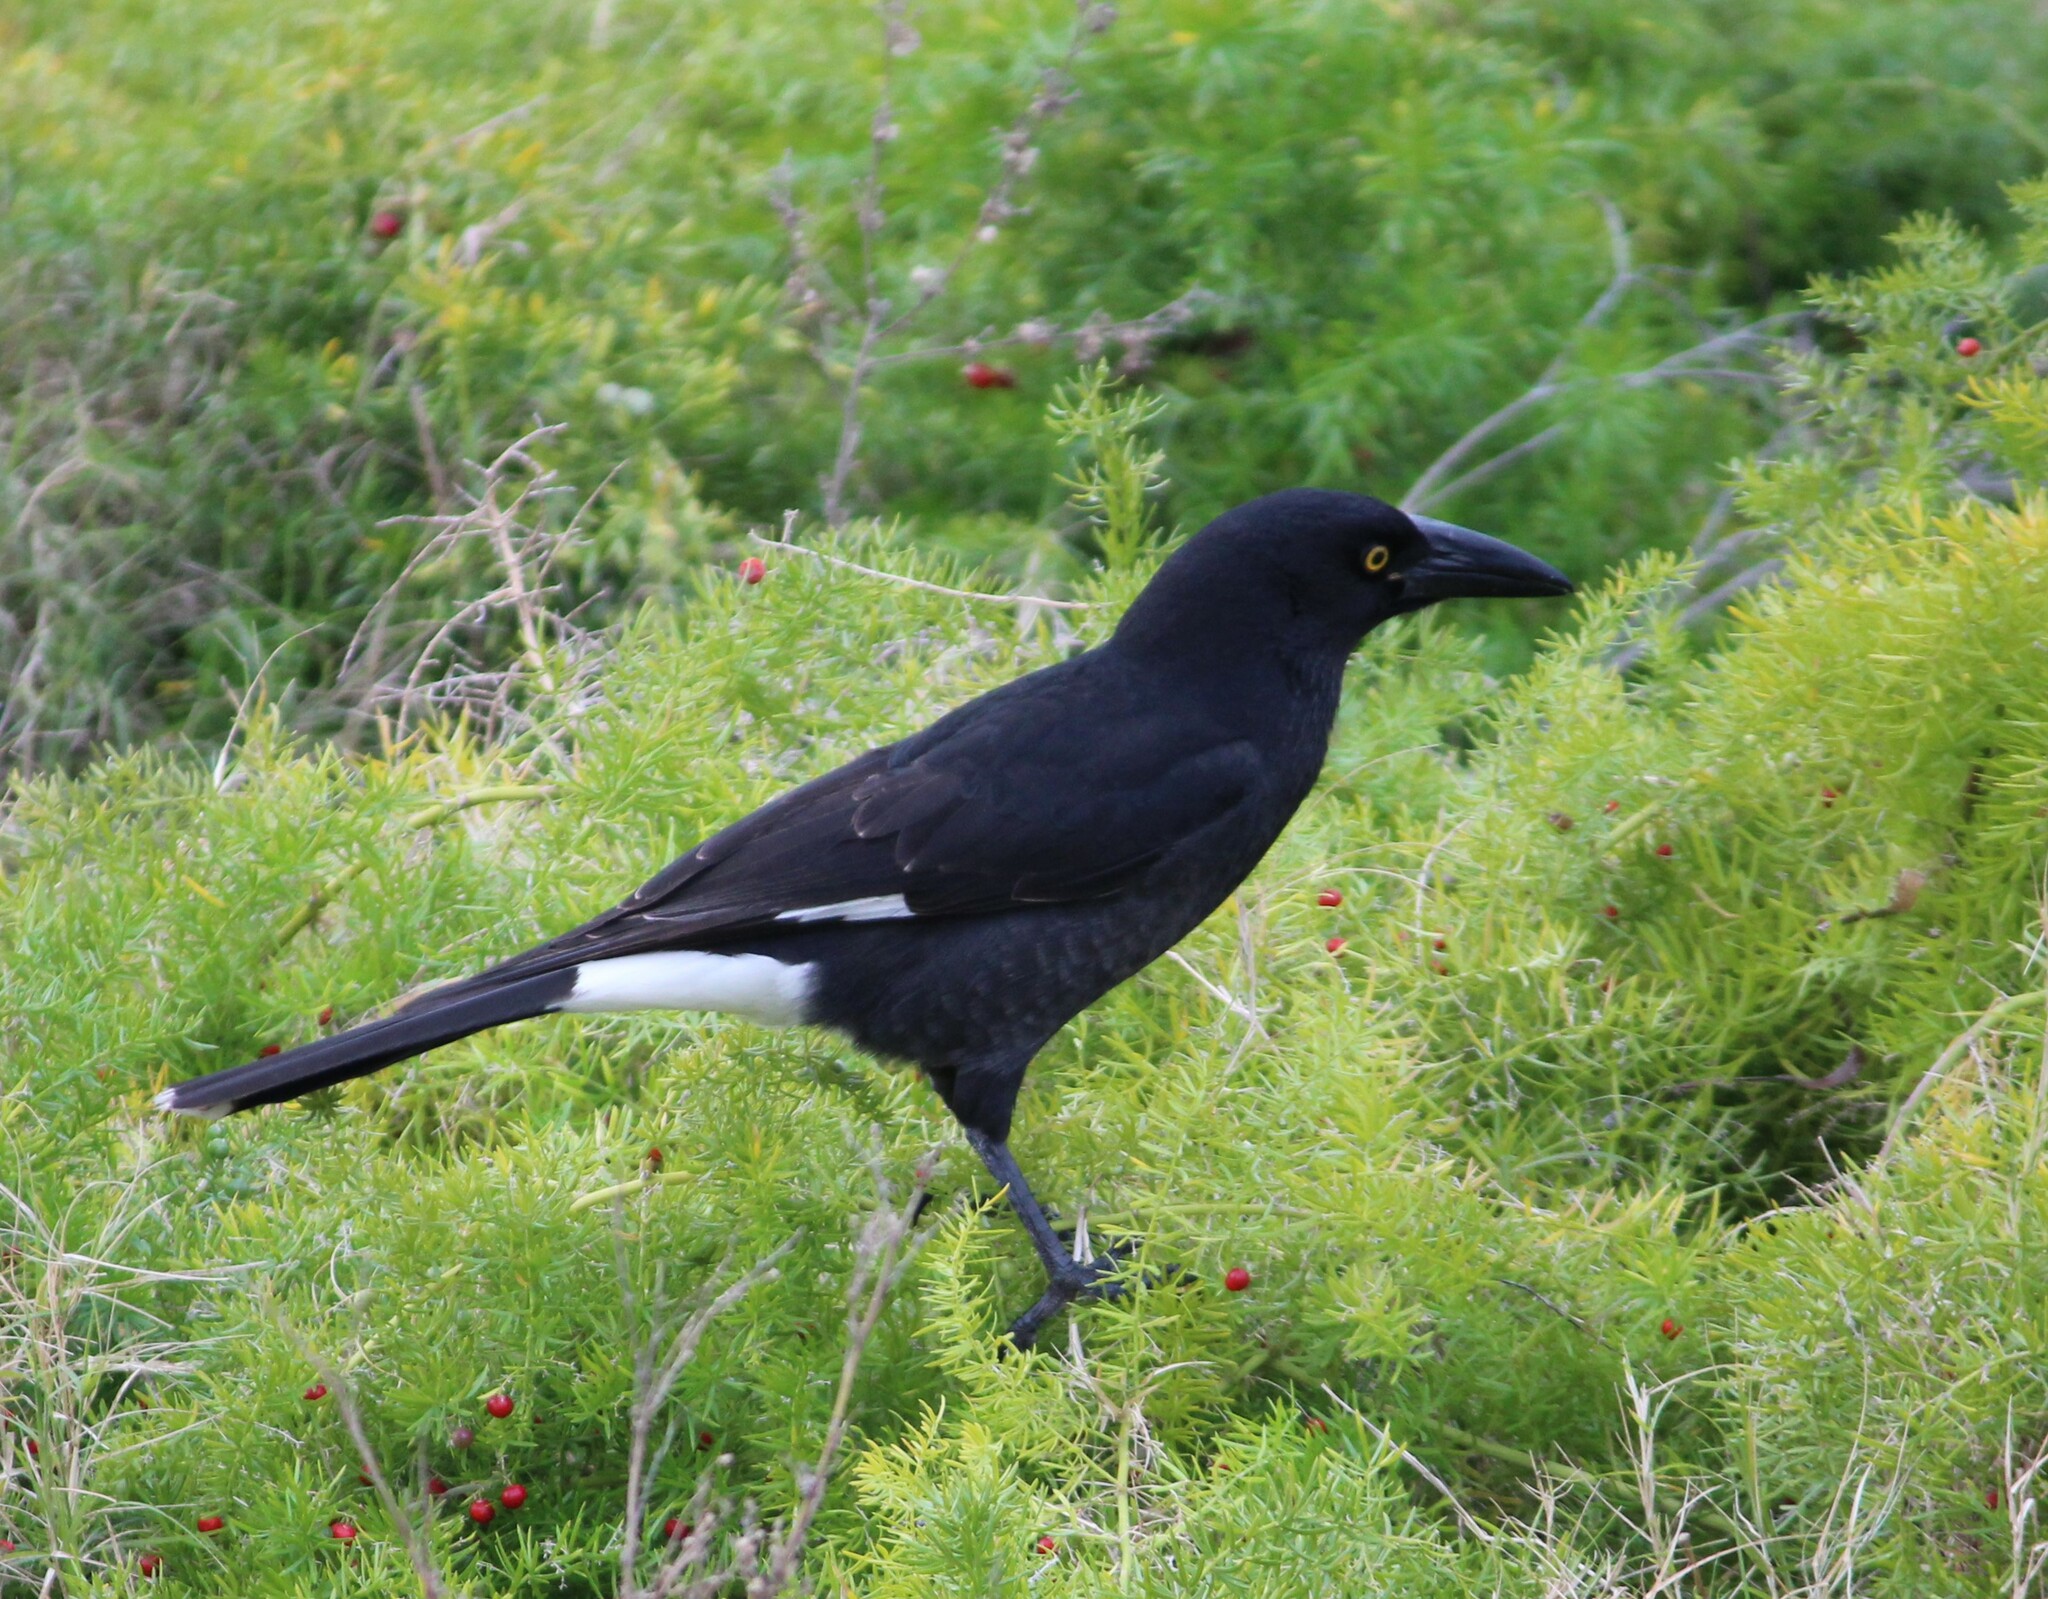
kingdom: Animalia
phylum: Chordata
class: Aves
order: Passeriformes
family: Cracticidae
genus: Strepera
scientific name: Strepera graculina
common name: Pied currawong
